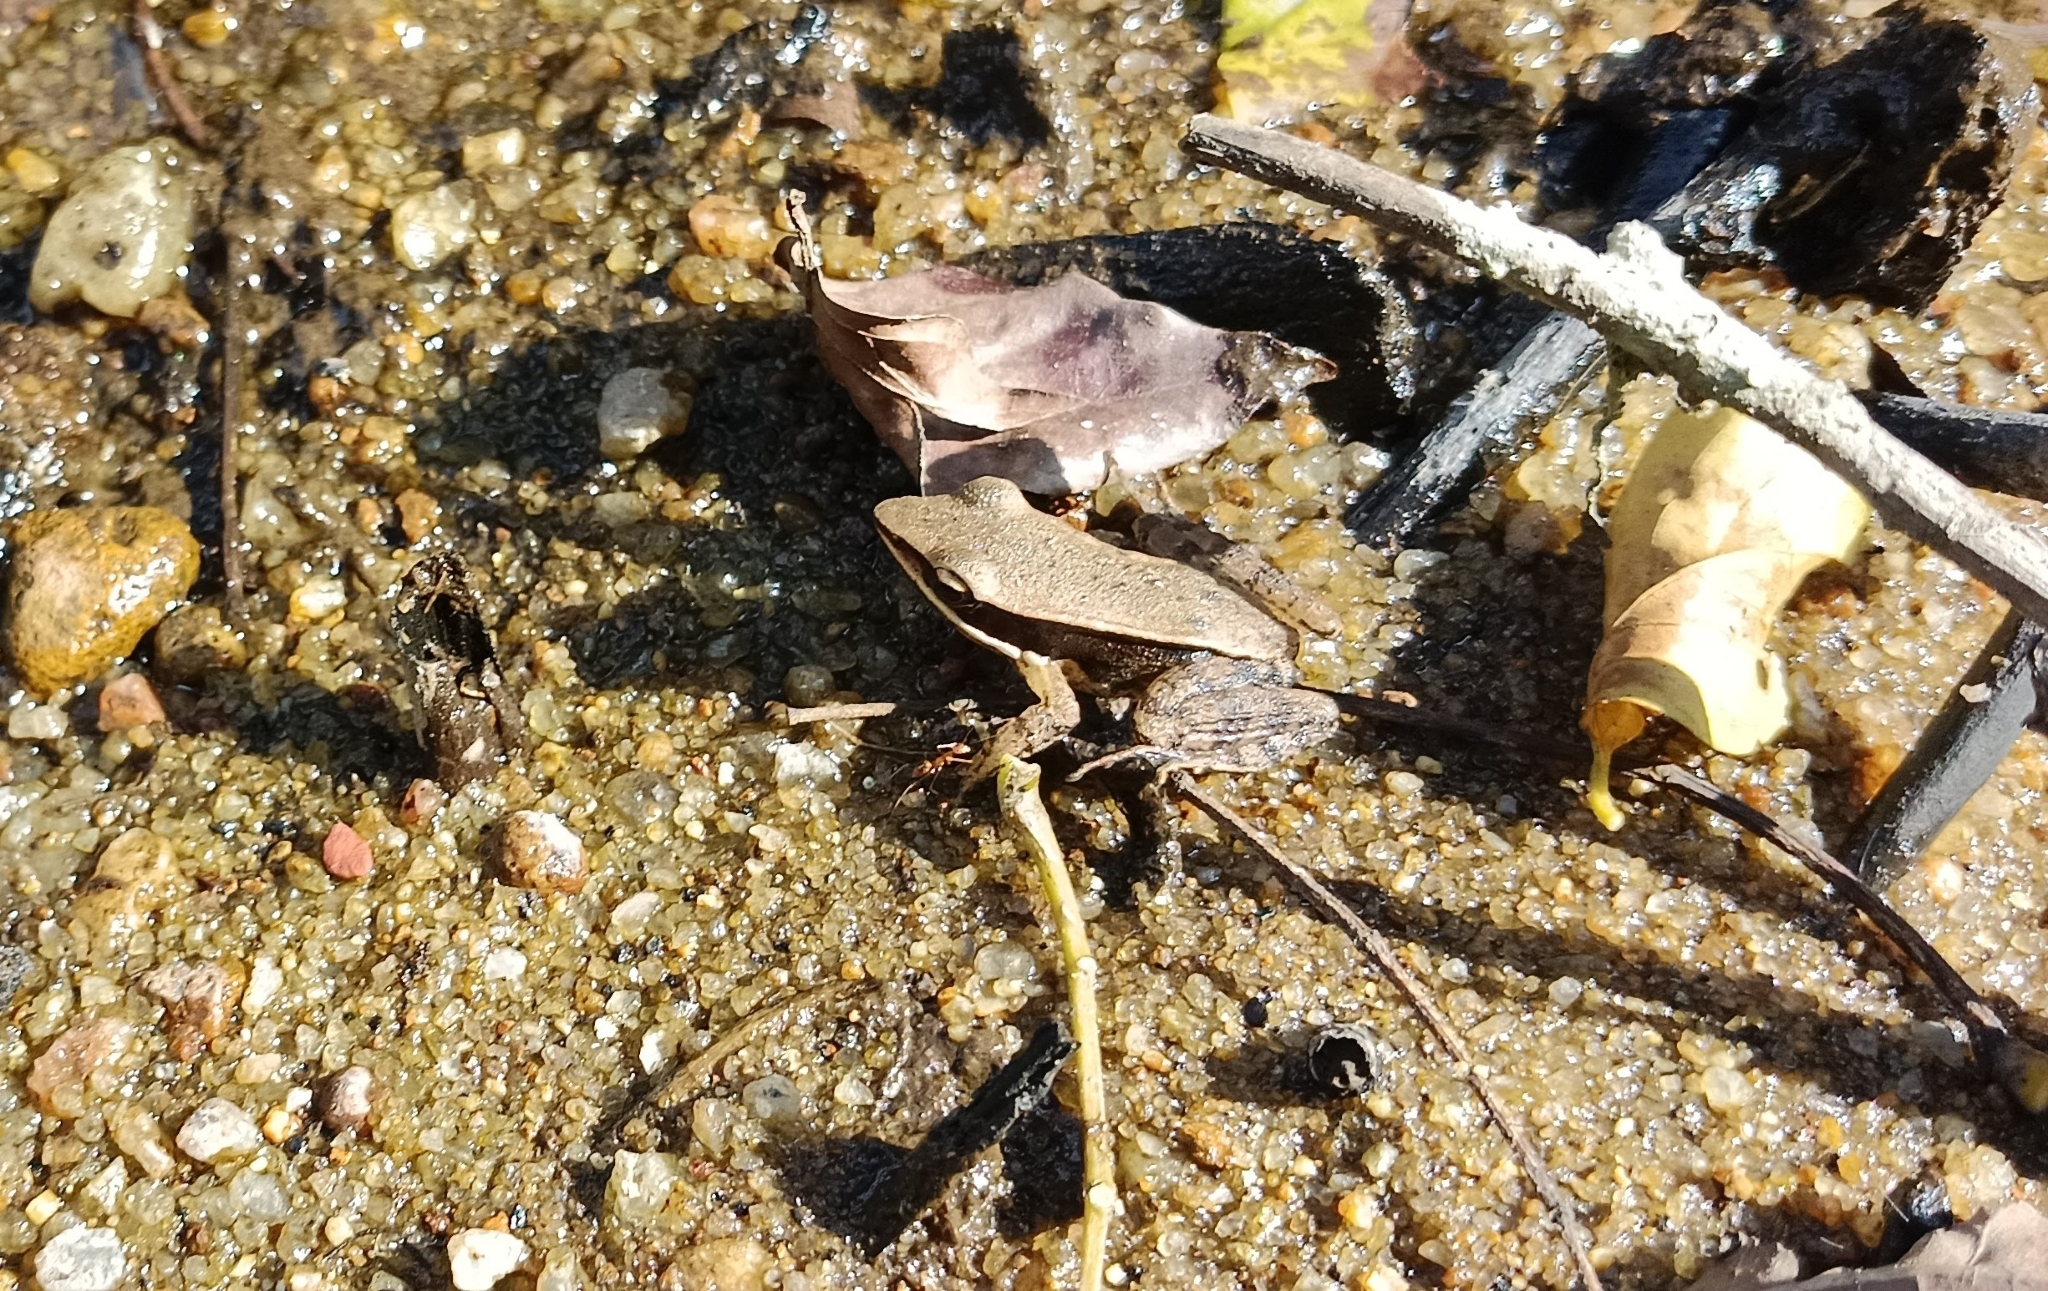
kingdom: Animalia
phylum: Chordata
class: Amphibia
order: Anura
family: Ranidae
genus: Indosylvirana
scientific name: Indosylvirana sreeni
